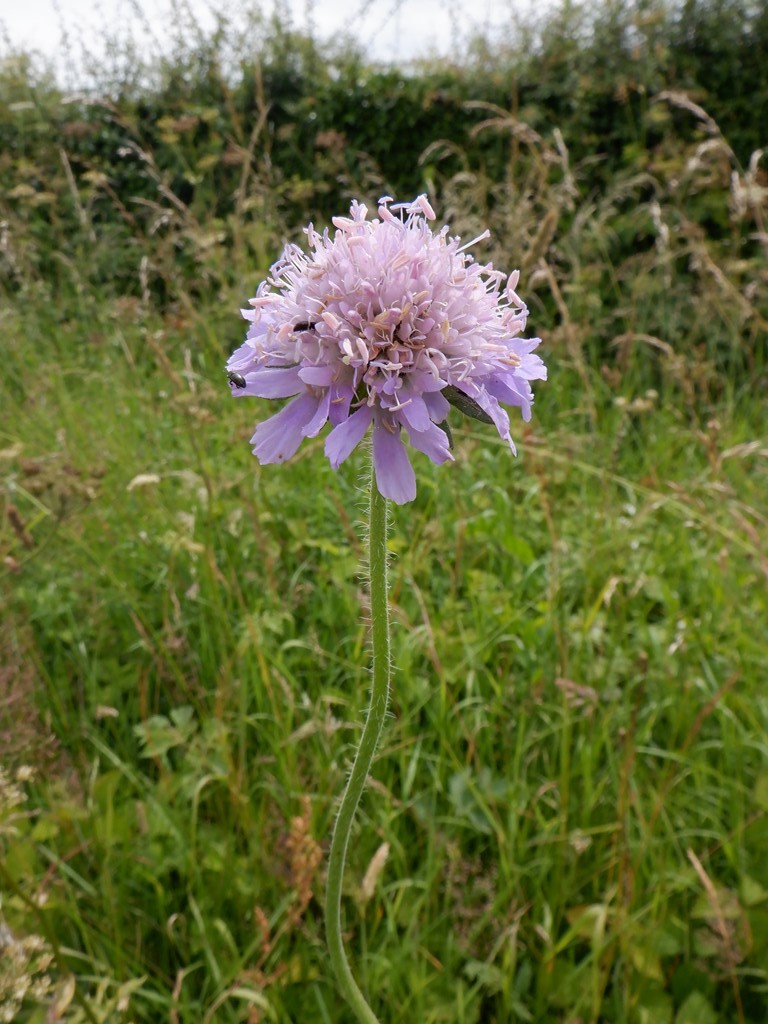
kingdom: Plantae
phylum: Tracheophyta
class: Magnoliopsida
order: Dipsacales
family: Caprifoliaceae
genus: Knautia
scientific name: Knautia arvensis
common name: Field scabiosa
